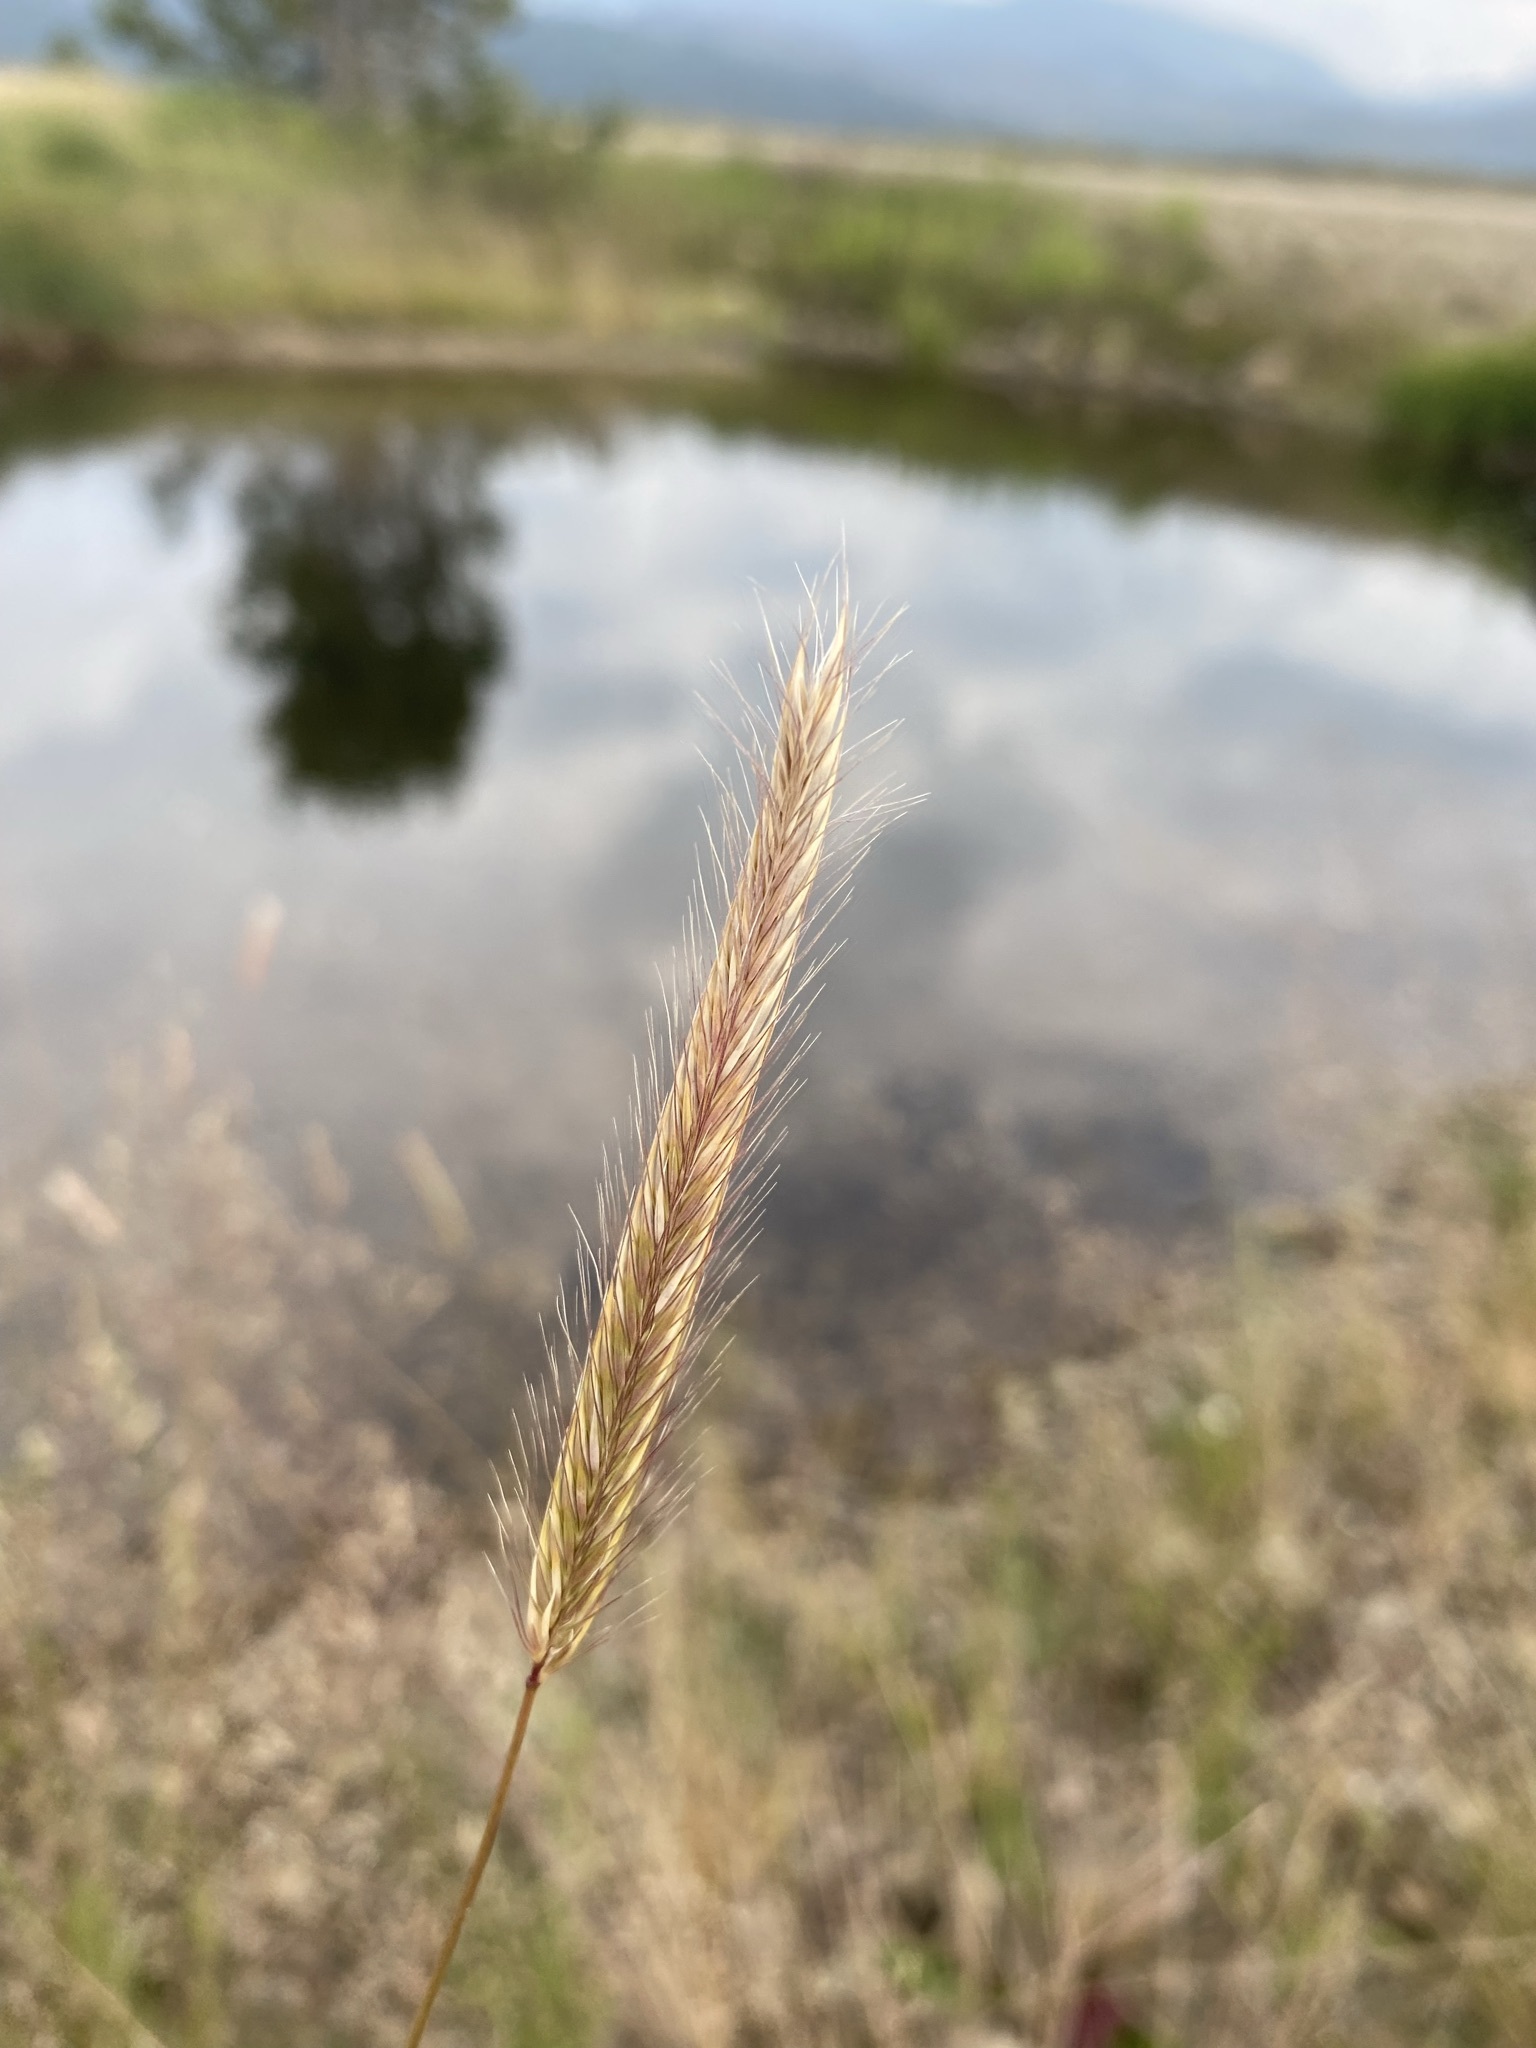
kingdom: Plantae
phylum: Tracheophyta
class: Liliopsida
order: Poales
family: Poaceae
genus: Hordeum
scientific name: Hordeum brachyantherum
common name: Meadow barley
